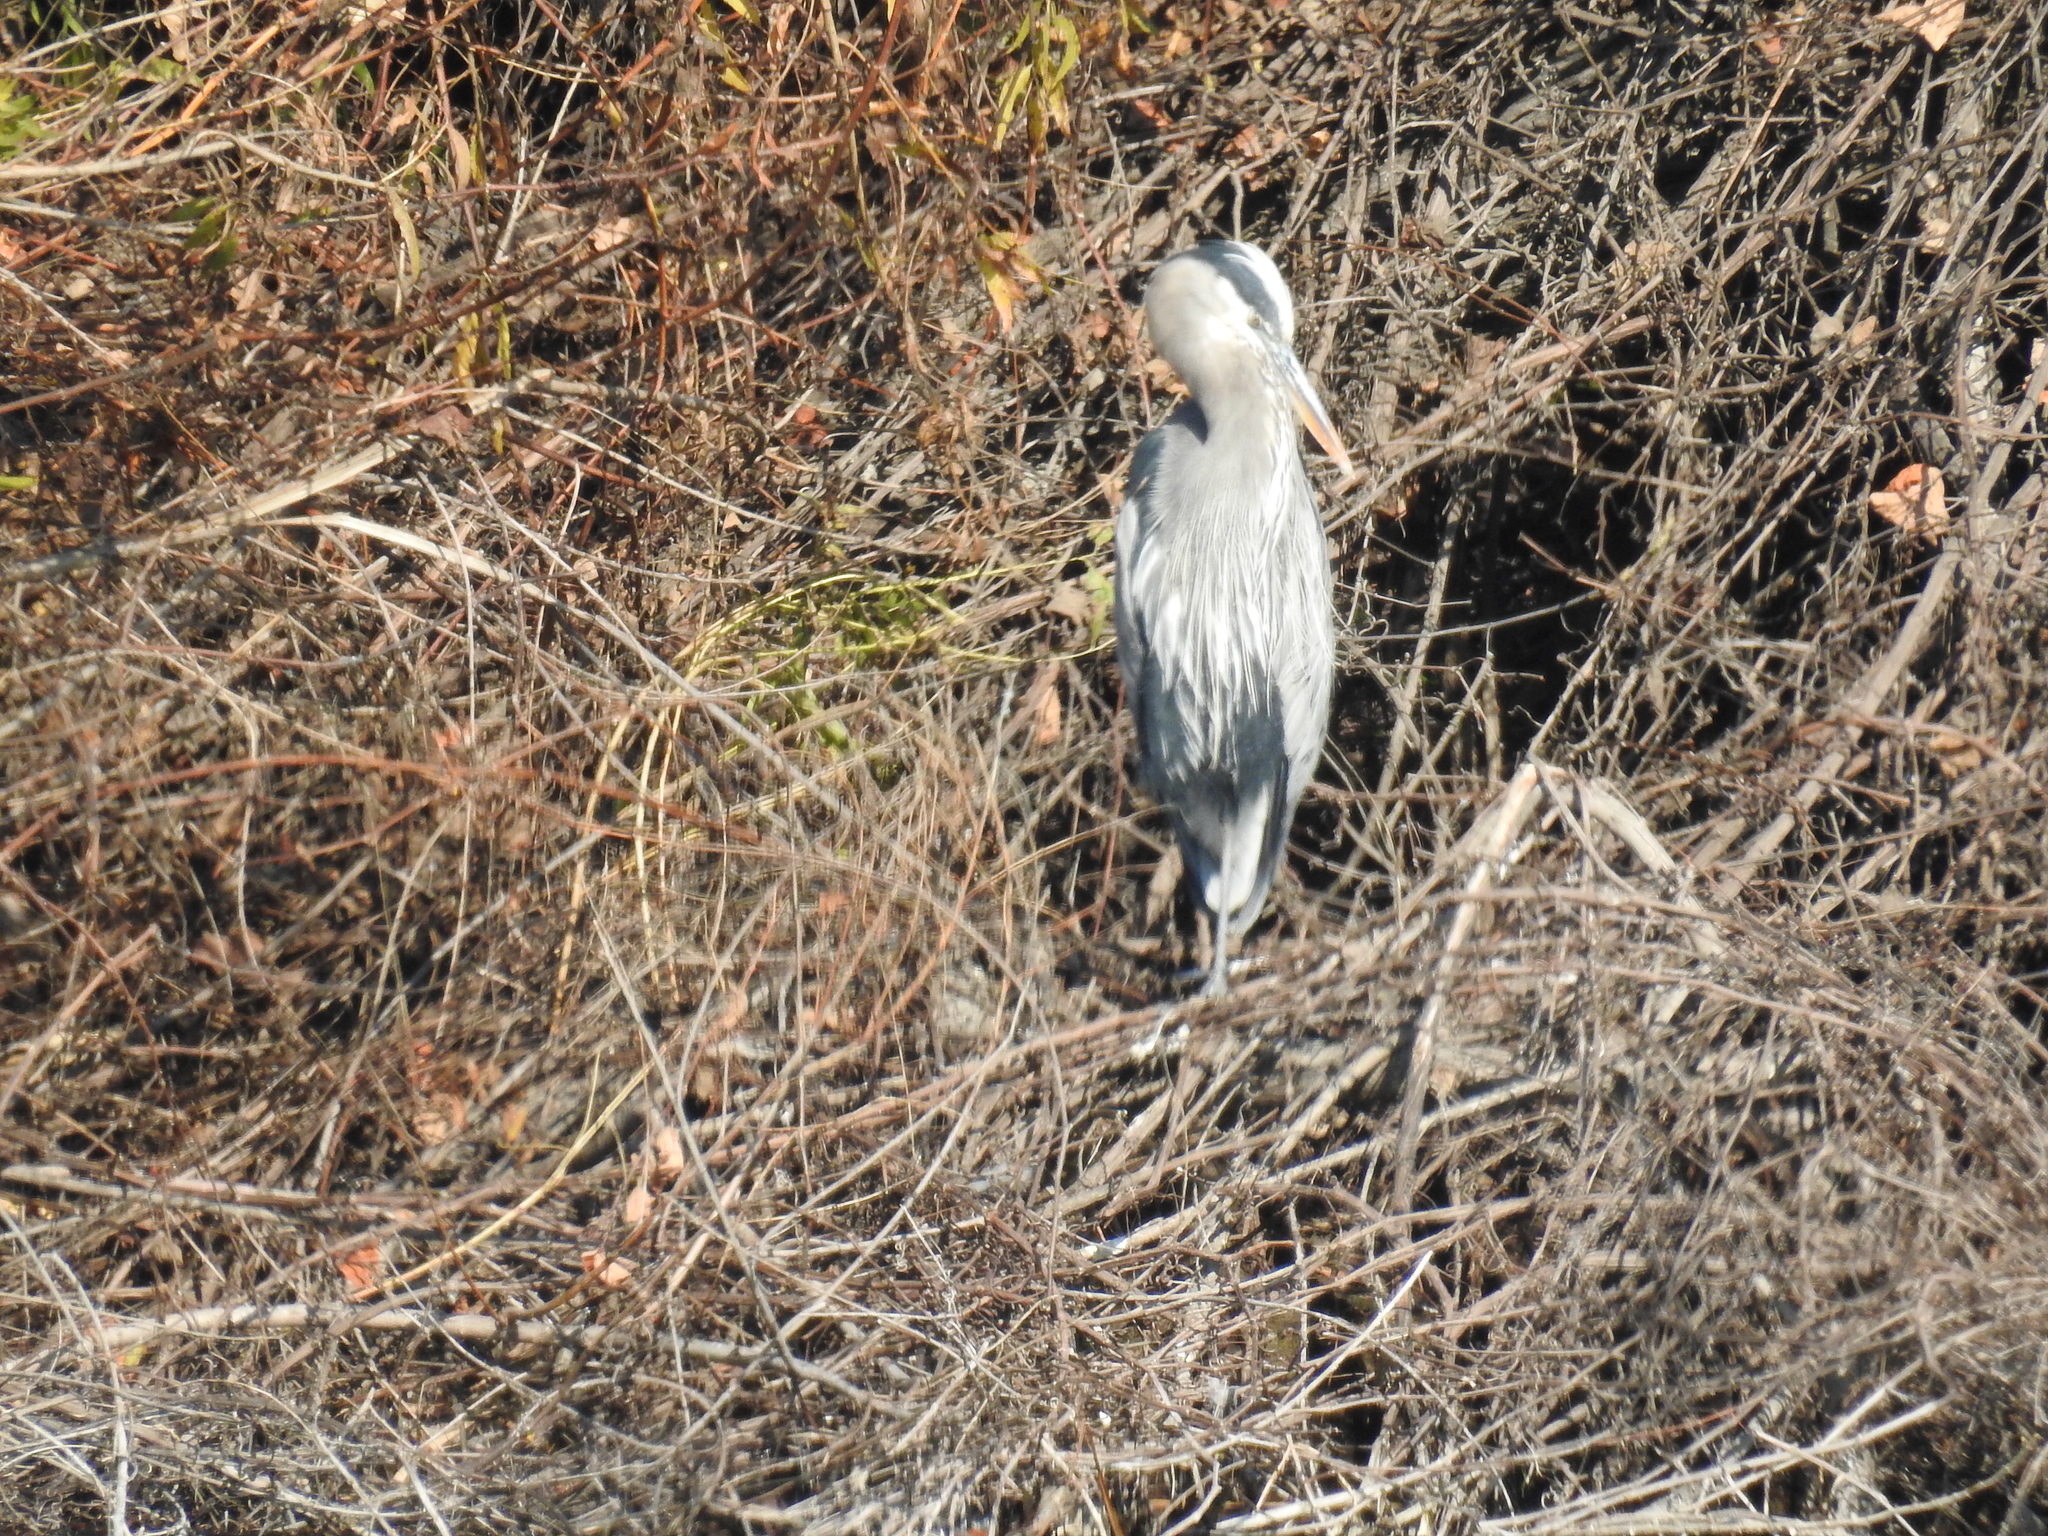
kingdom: Animalia
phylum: Chordata
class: Aves
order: Pelecaniformes
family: Ardeidae
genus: Ardea
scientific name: Ardea herodias
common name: Great blue heron
